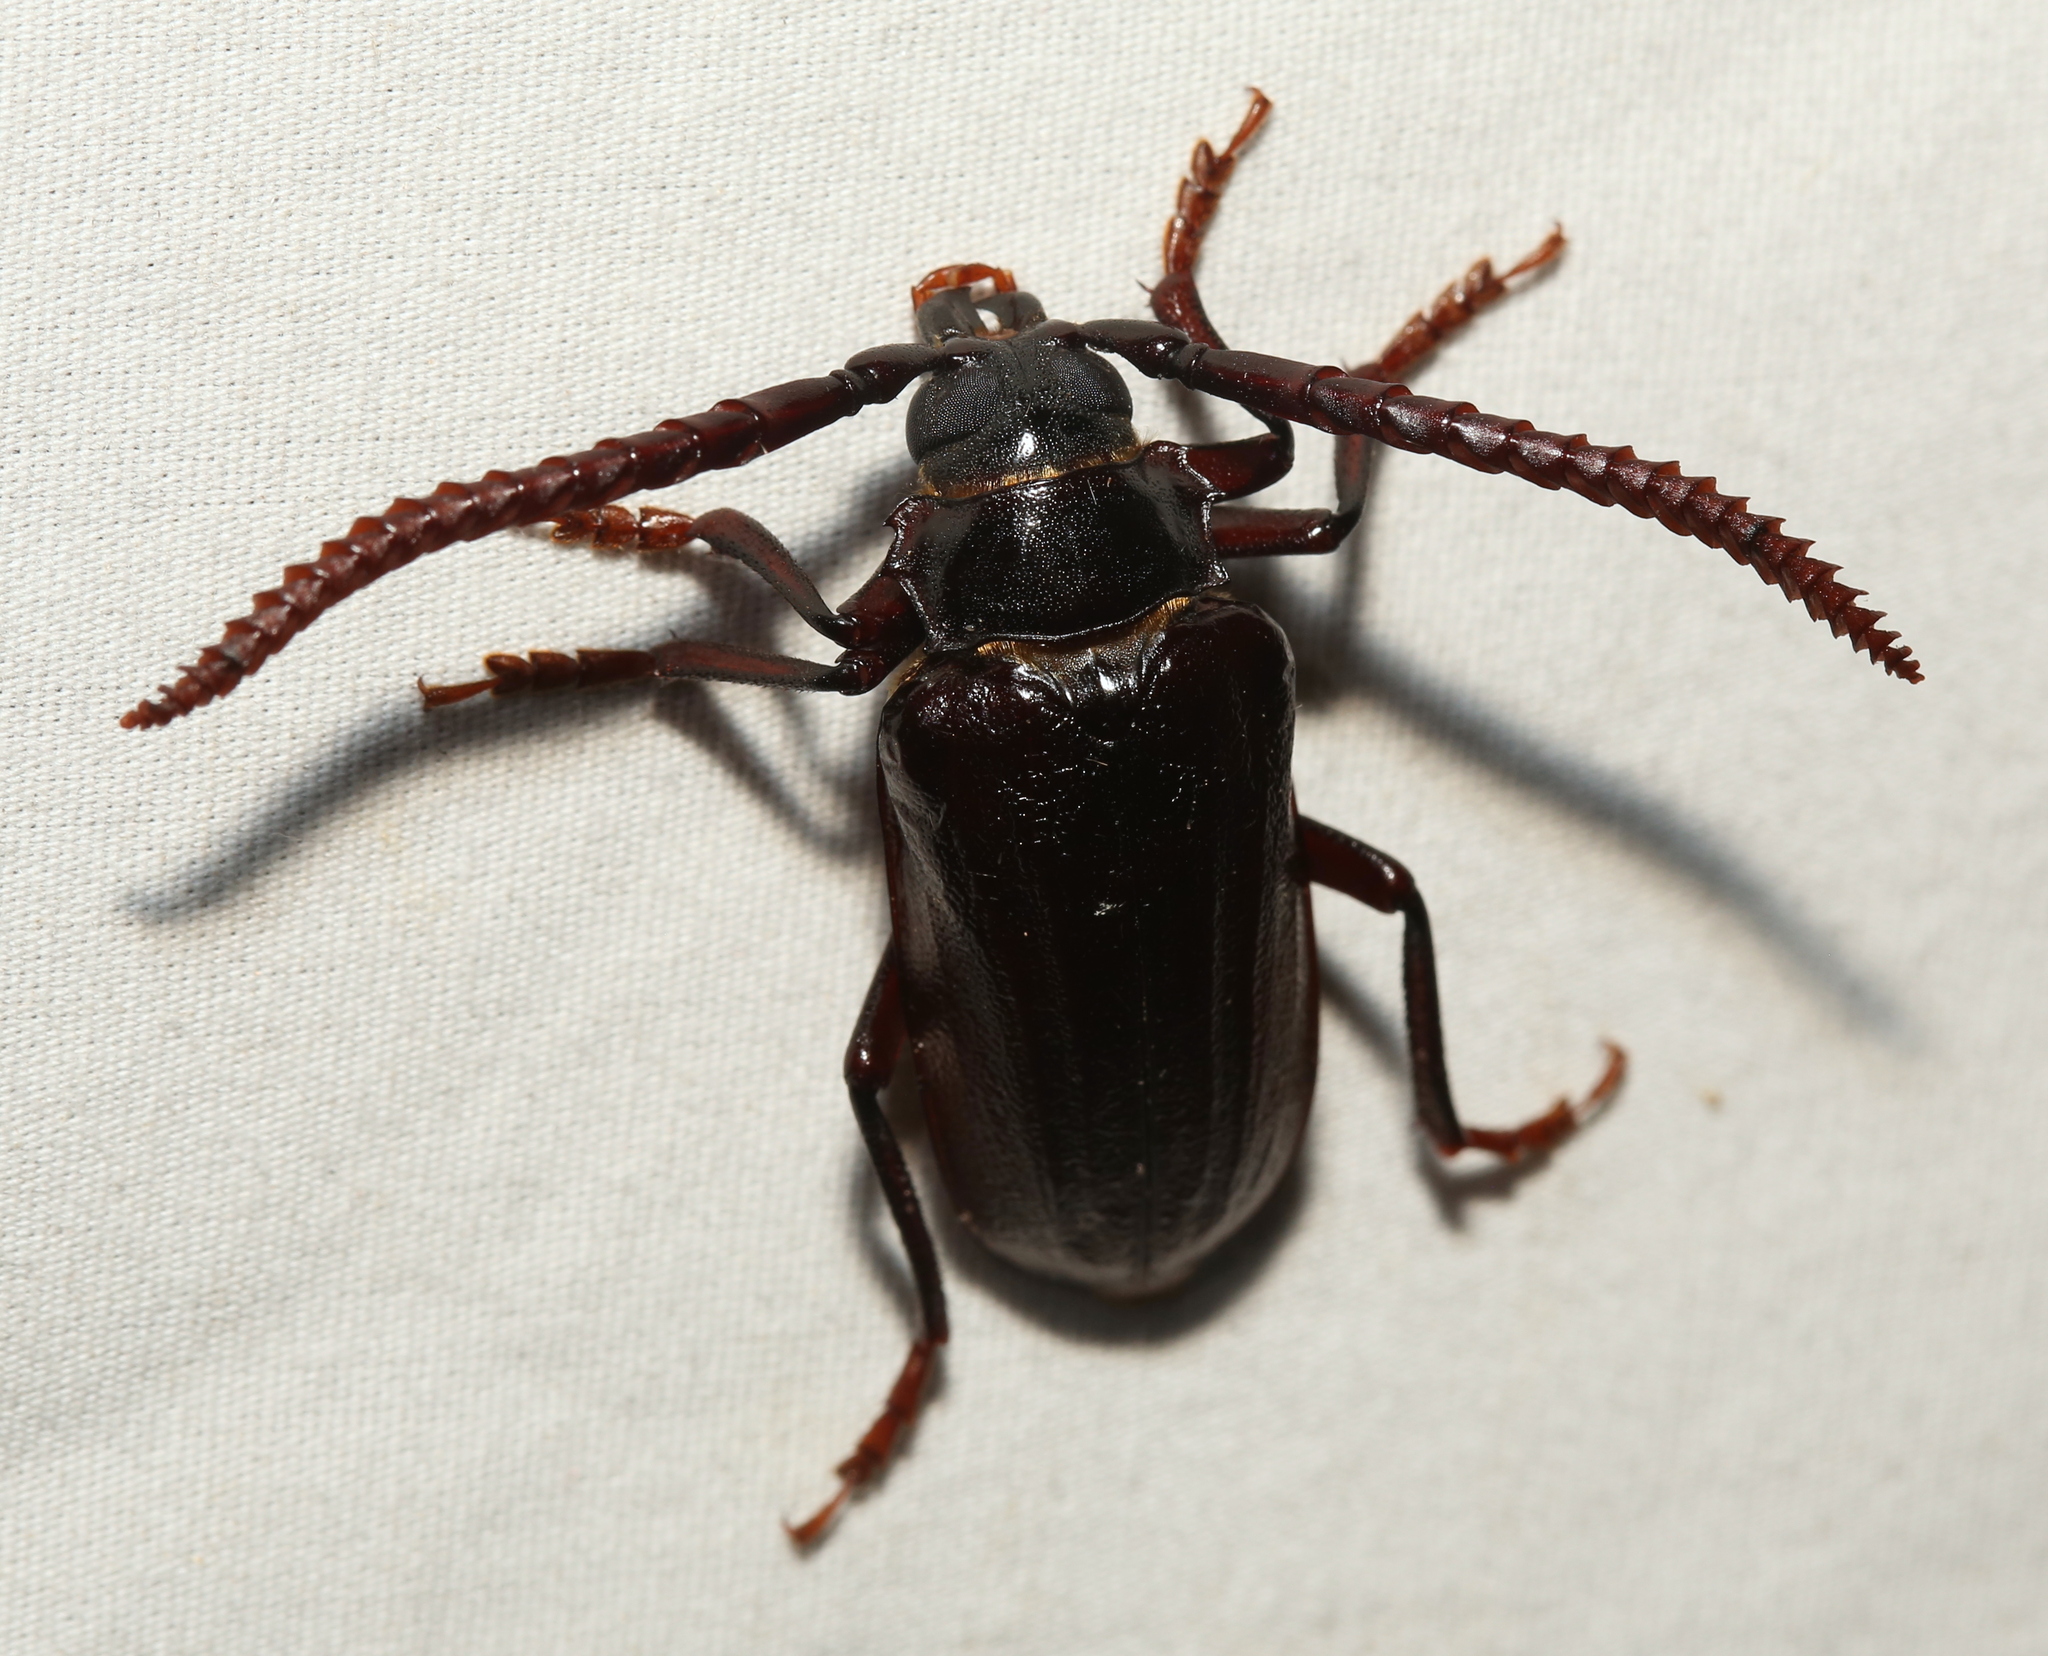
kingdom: Animalia
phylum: Arthropoda
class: Insecta
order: Coleoptera
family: Cerambycidae
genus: Prionus
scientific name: Prionus imbricornis
